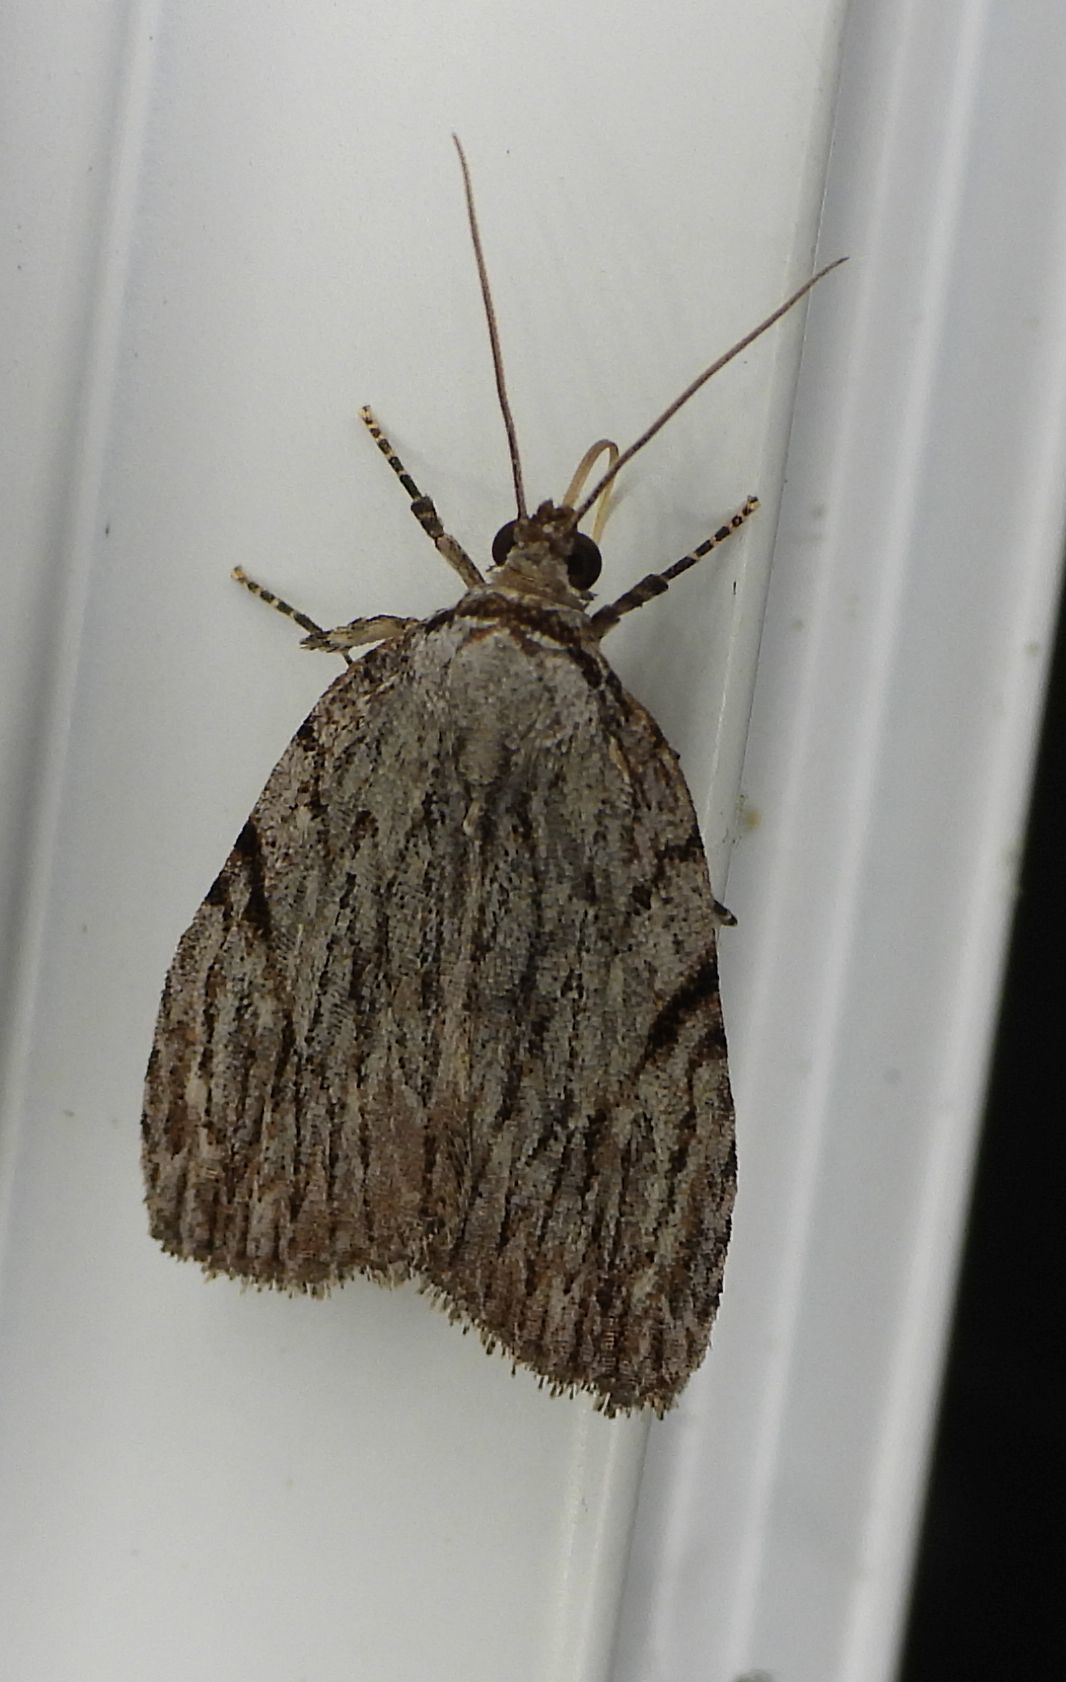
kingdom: Animalia
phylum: Arthropoda
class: Insecta
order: Lepidoptera
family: Noctuidae
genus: Balsa
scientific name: Balsa tristrigella
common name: Three-lined balsa moth
